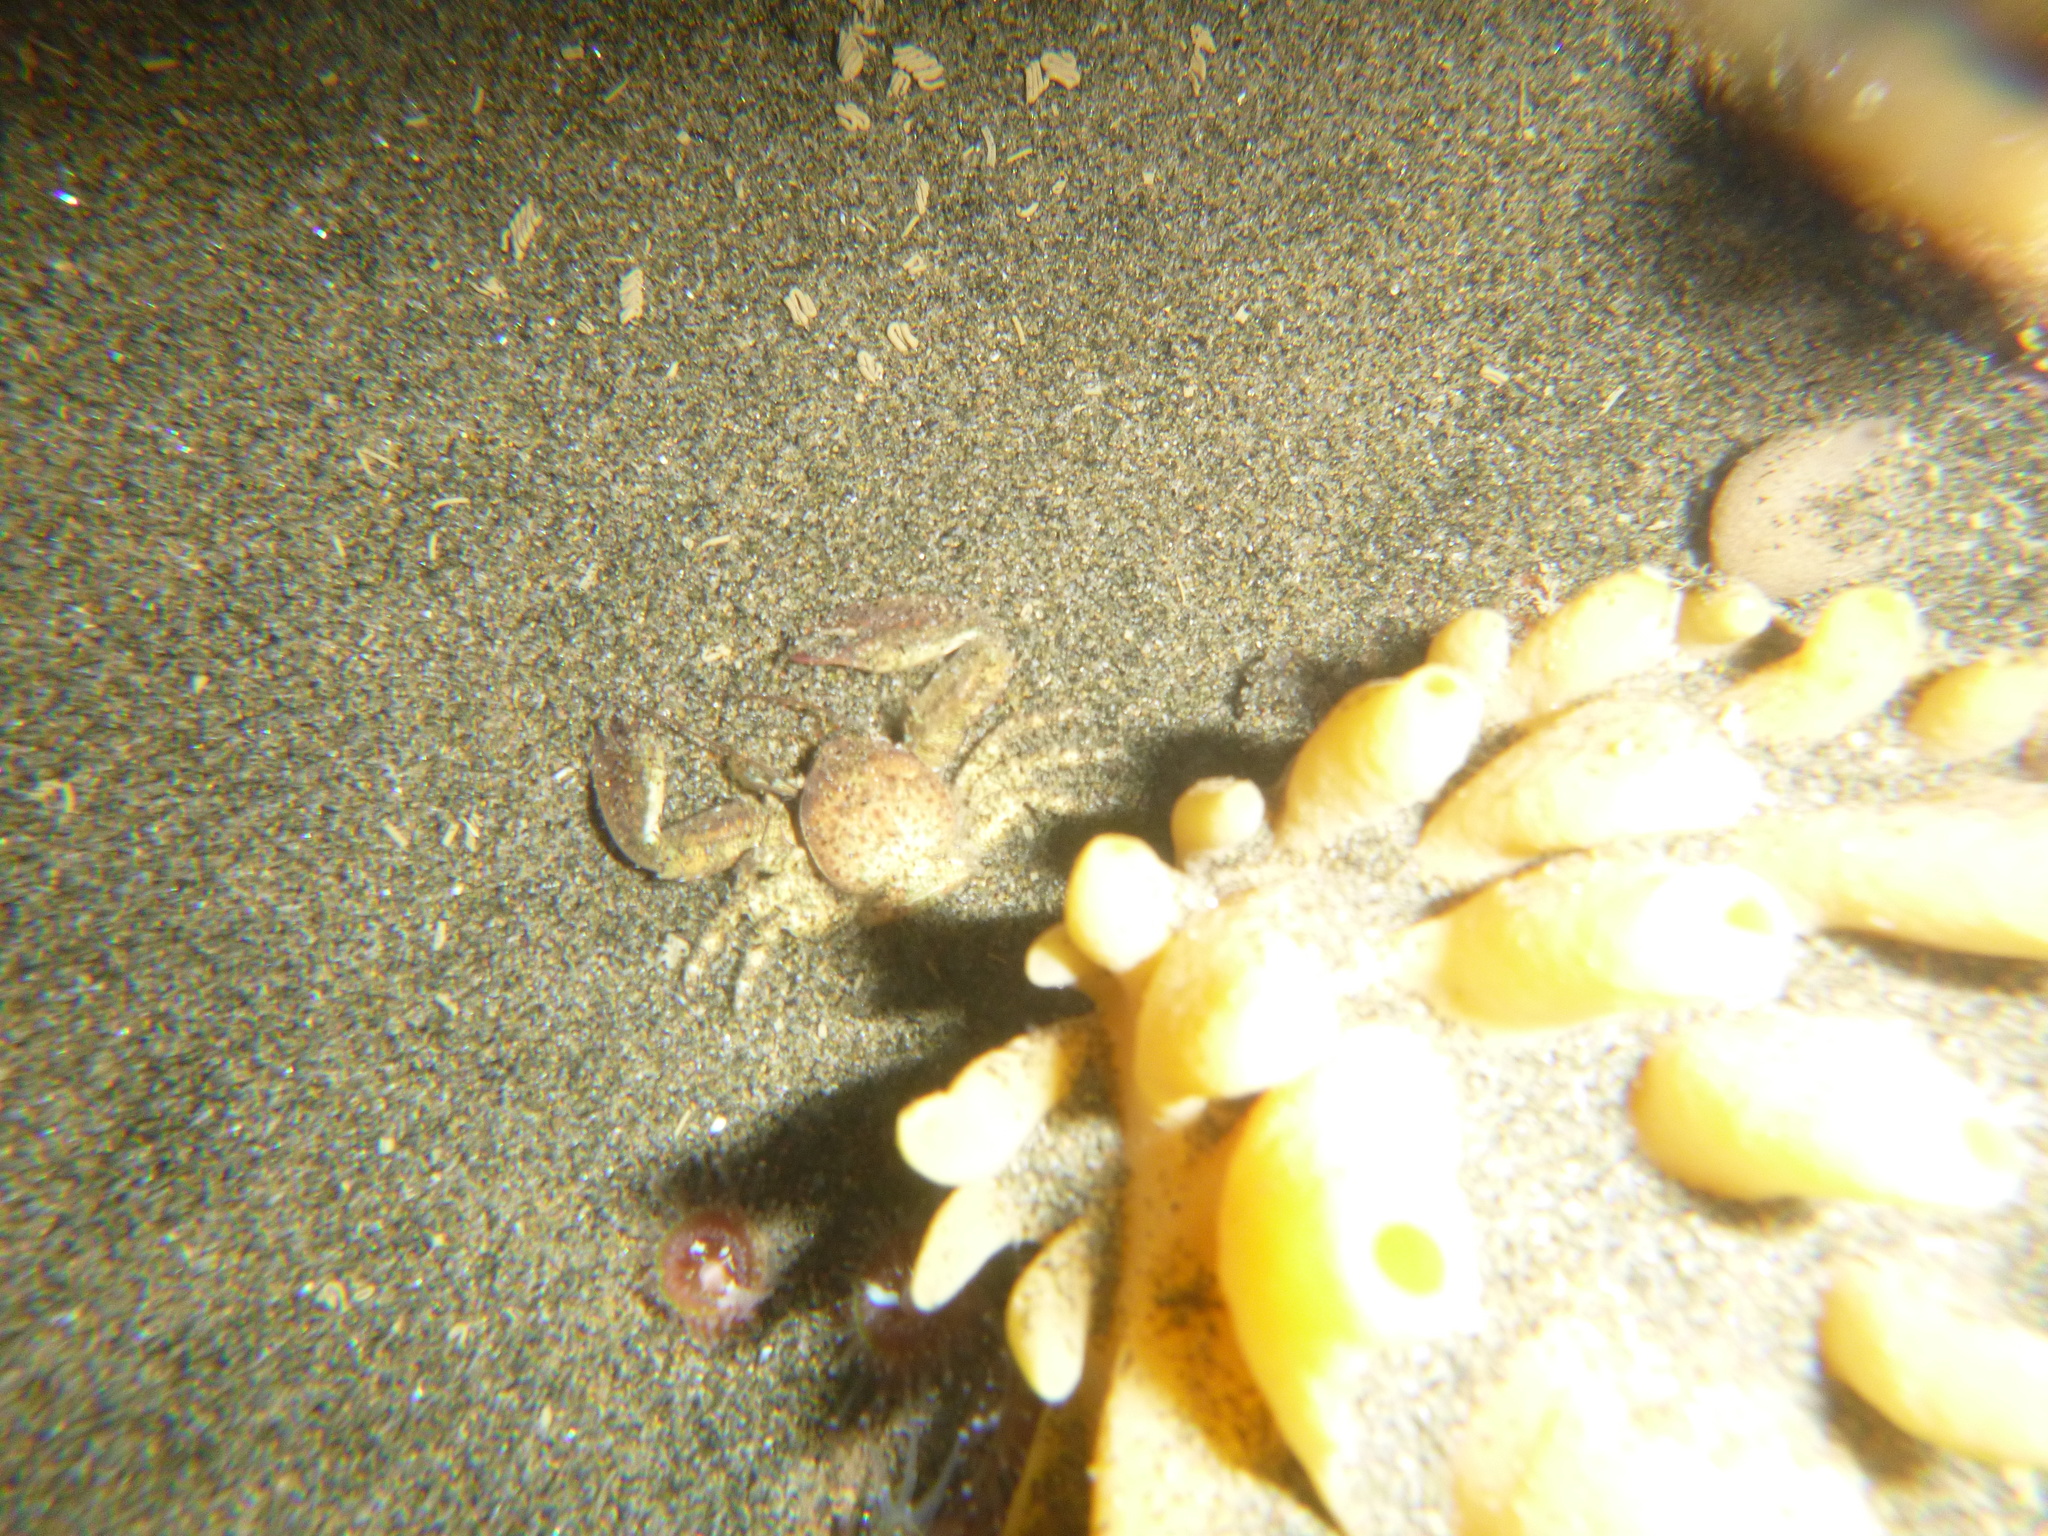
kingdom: Animalia
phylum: Arthropoda
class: Malacostraca
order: Decapoda
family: Porcellanidae
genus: Petrolisthes
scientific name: Petrolisthes novaezelandiae
